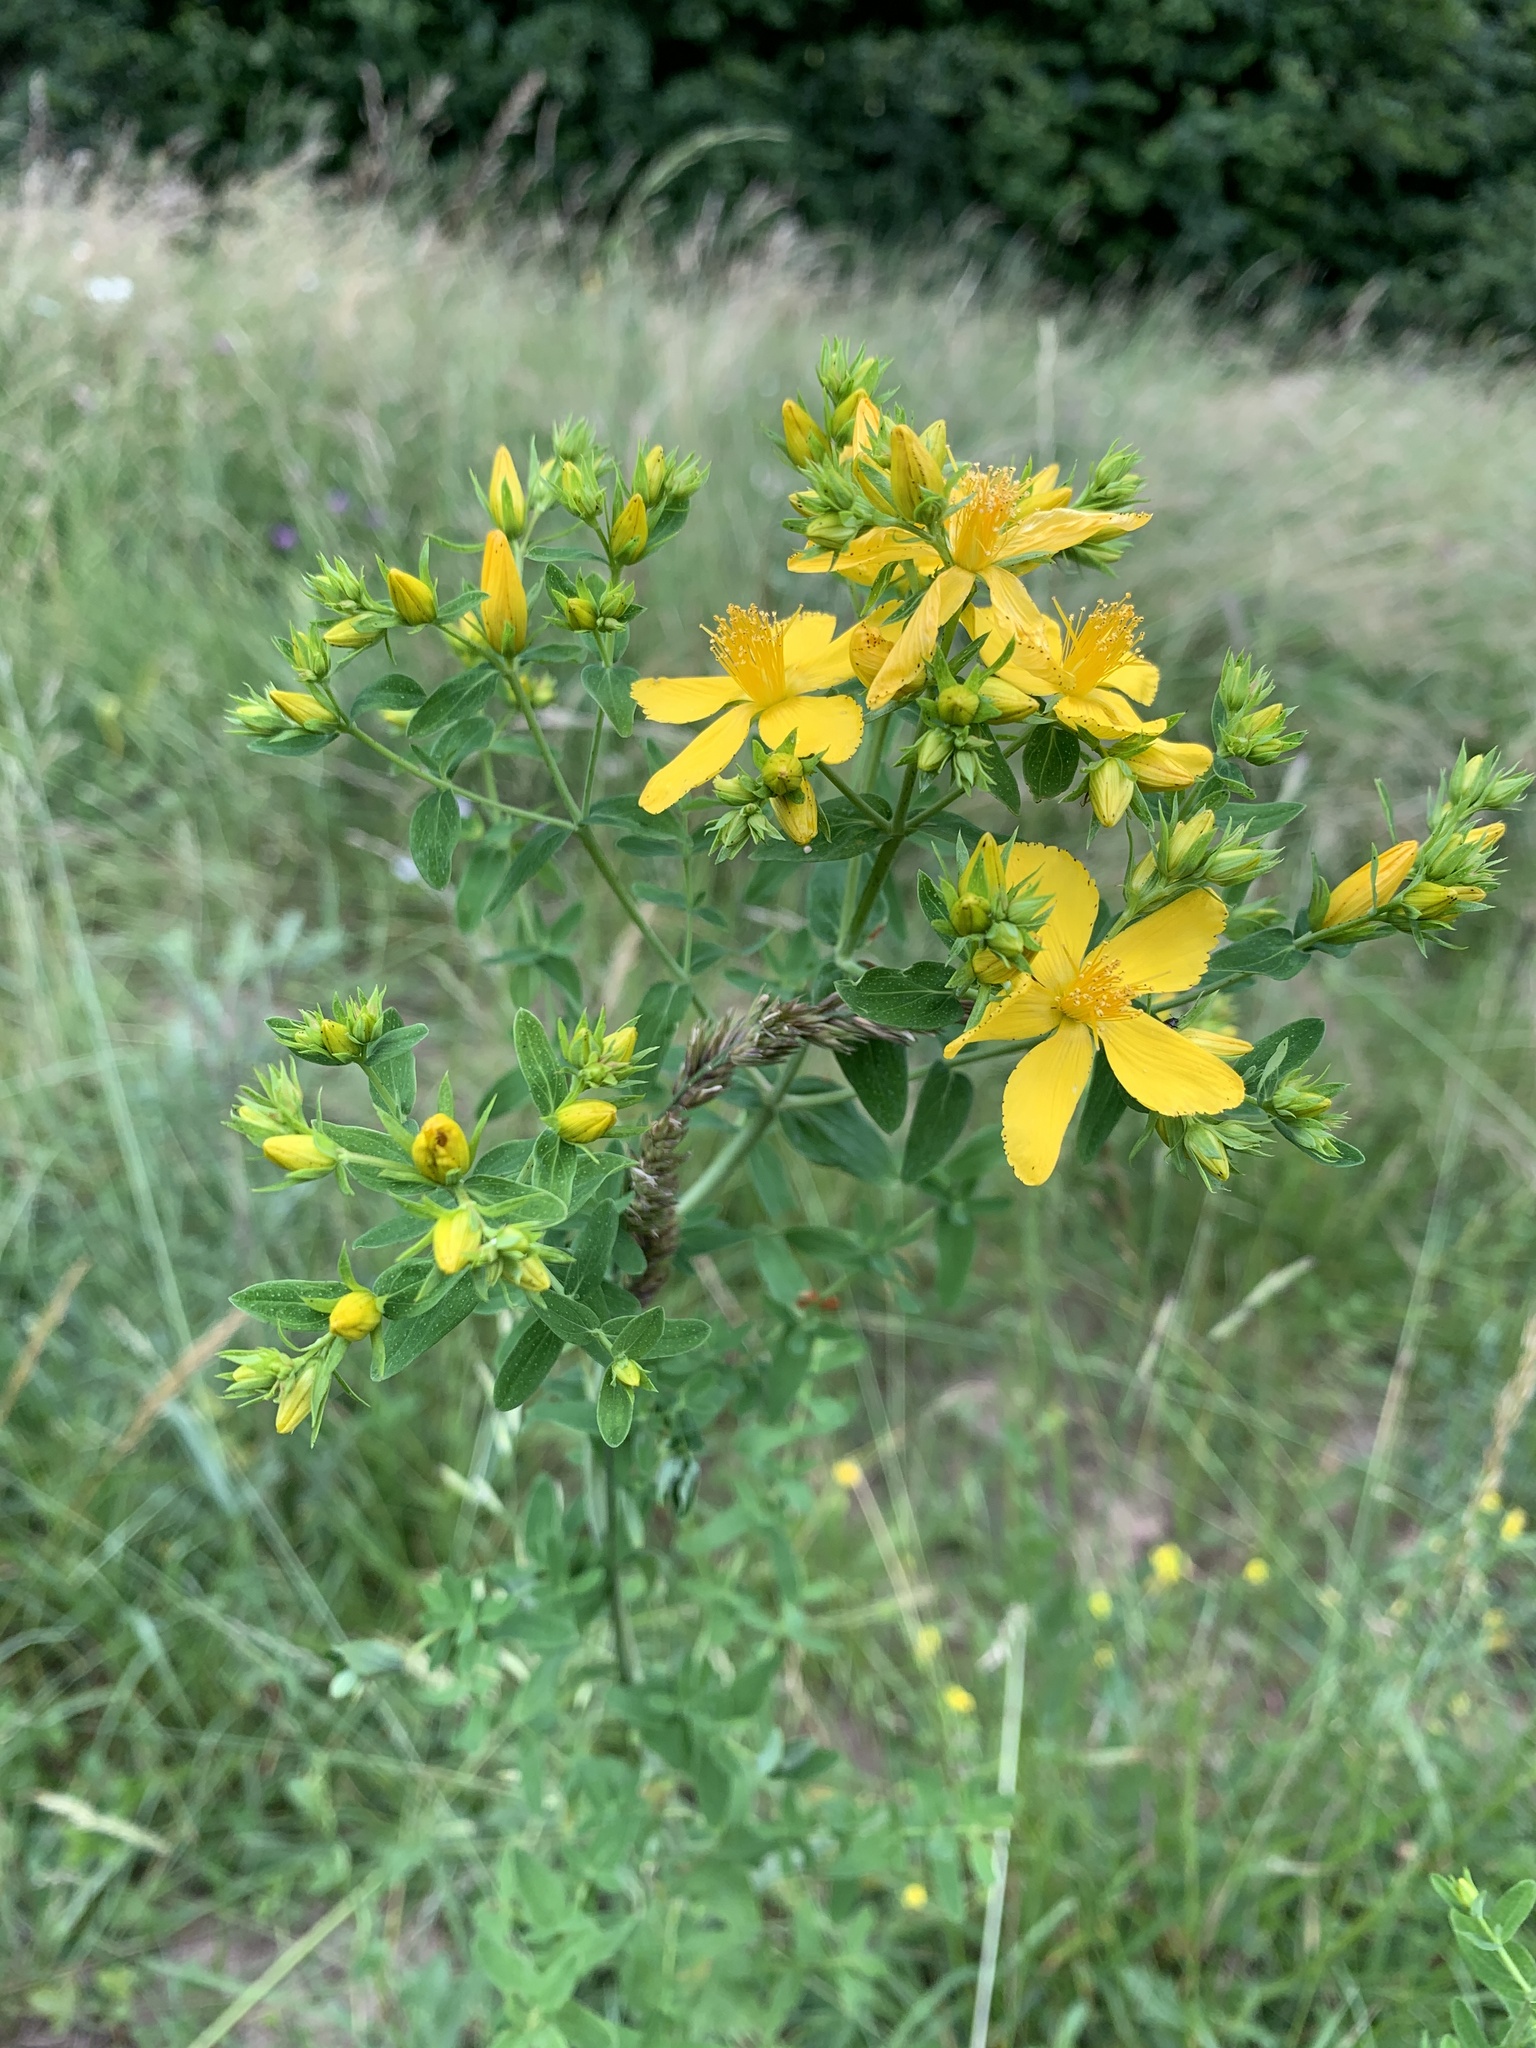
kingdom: Plantae
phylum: Tracheophyta
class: Magnoliopsida
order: Malpighiales
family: Hypericaceae
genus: Hypericum
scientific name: Hypericum perforatum
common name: Common st. johnswort
